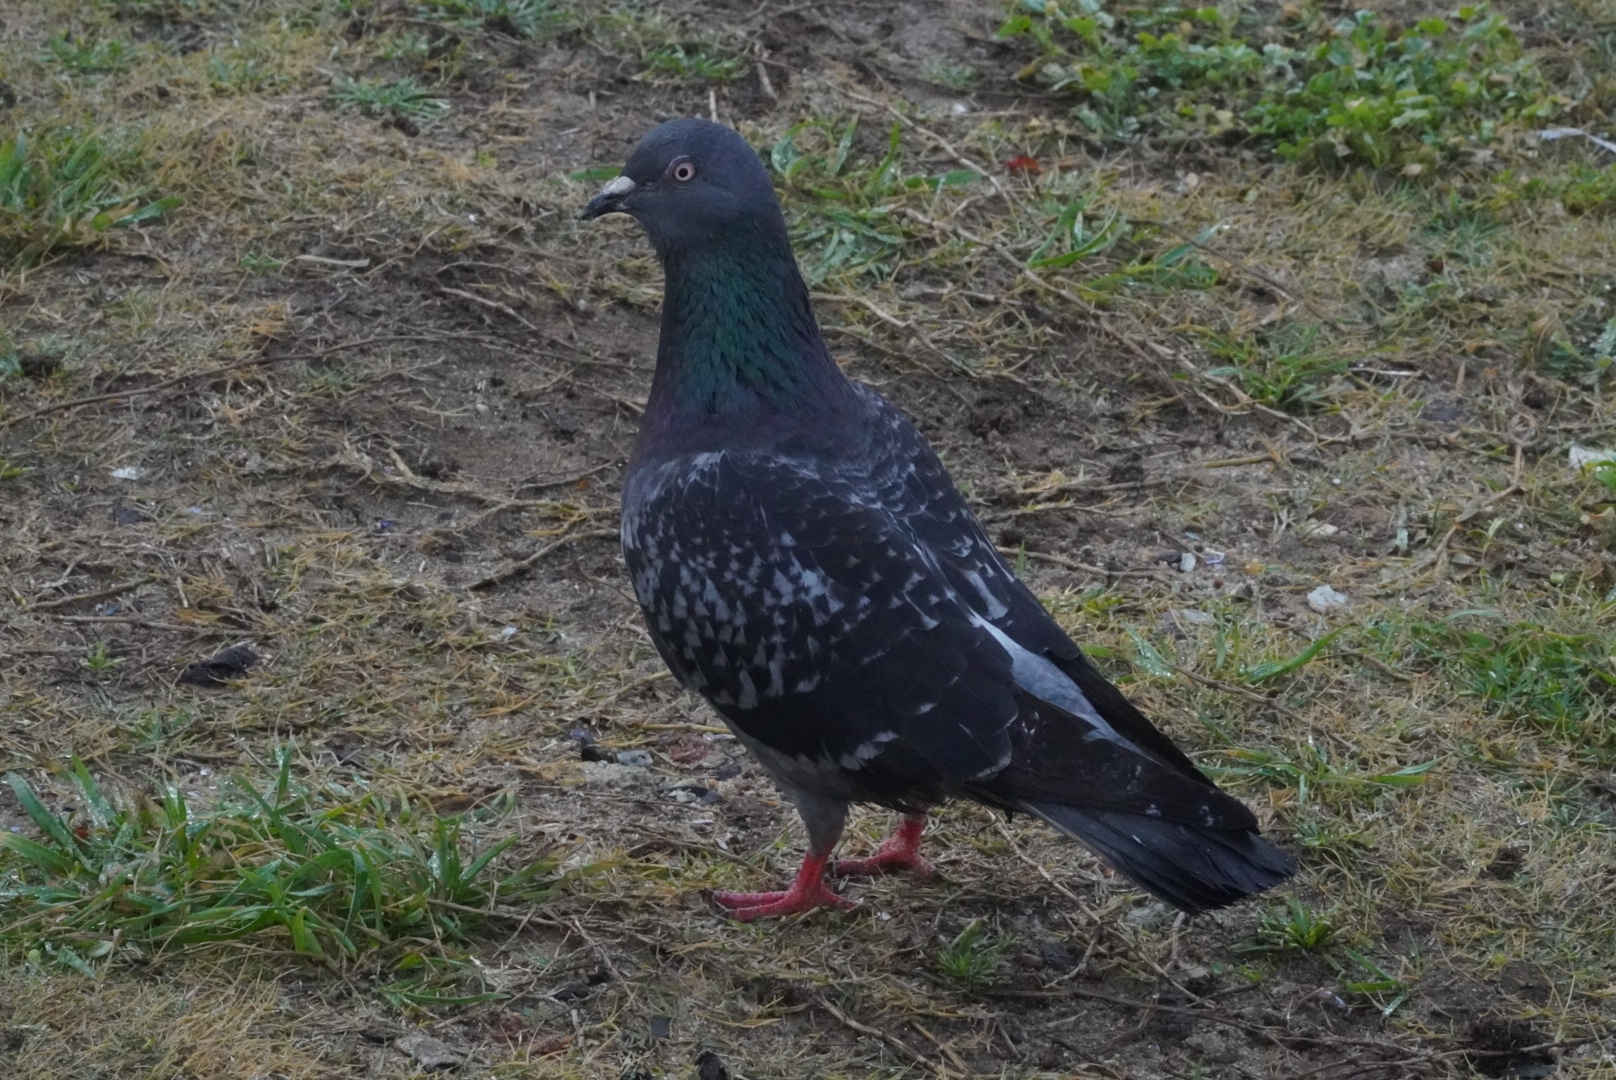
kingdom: Animalia
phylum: Chordata
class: Aves
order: Columbiformes
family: Columbidae
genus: Columba
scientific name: Columba livia
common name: Rock pigeon
